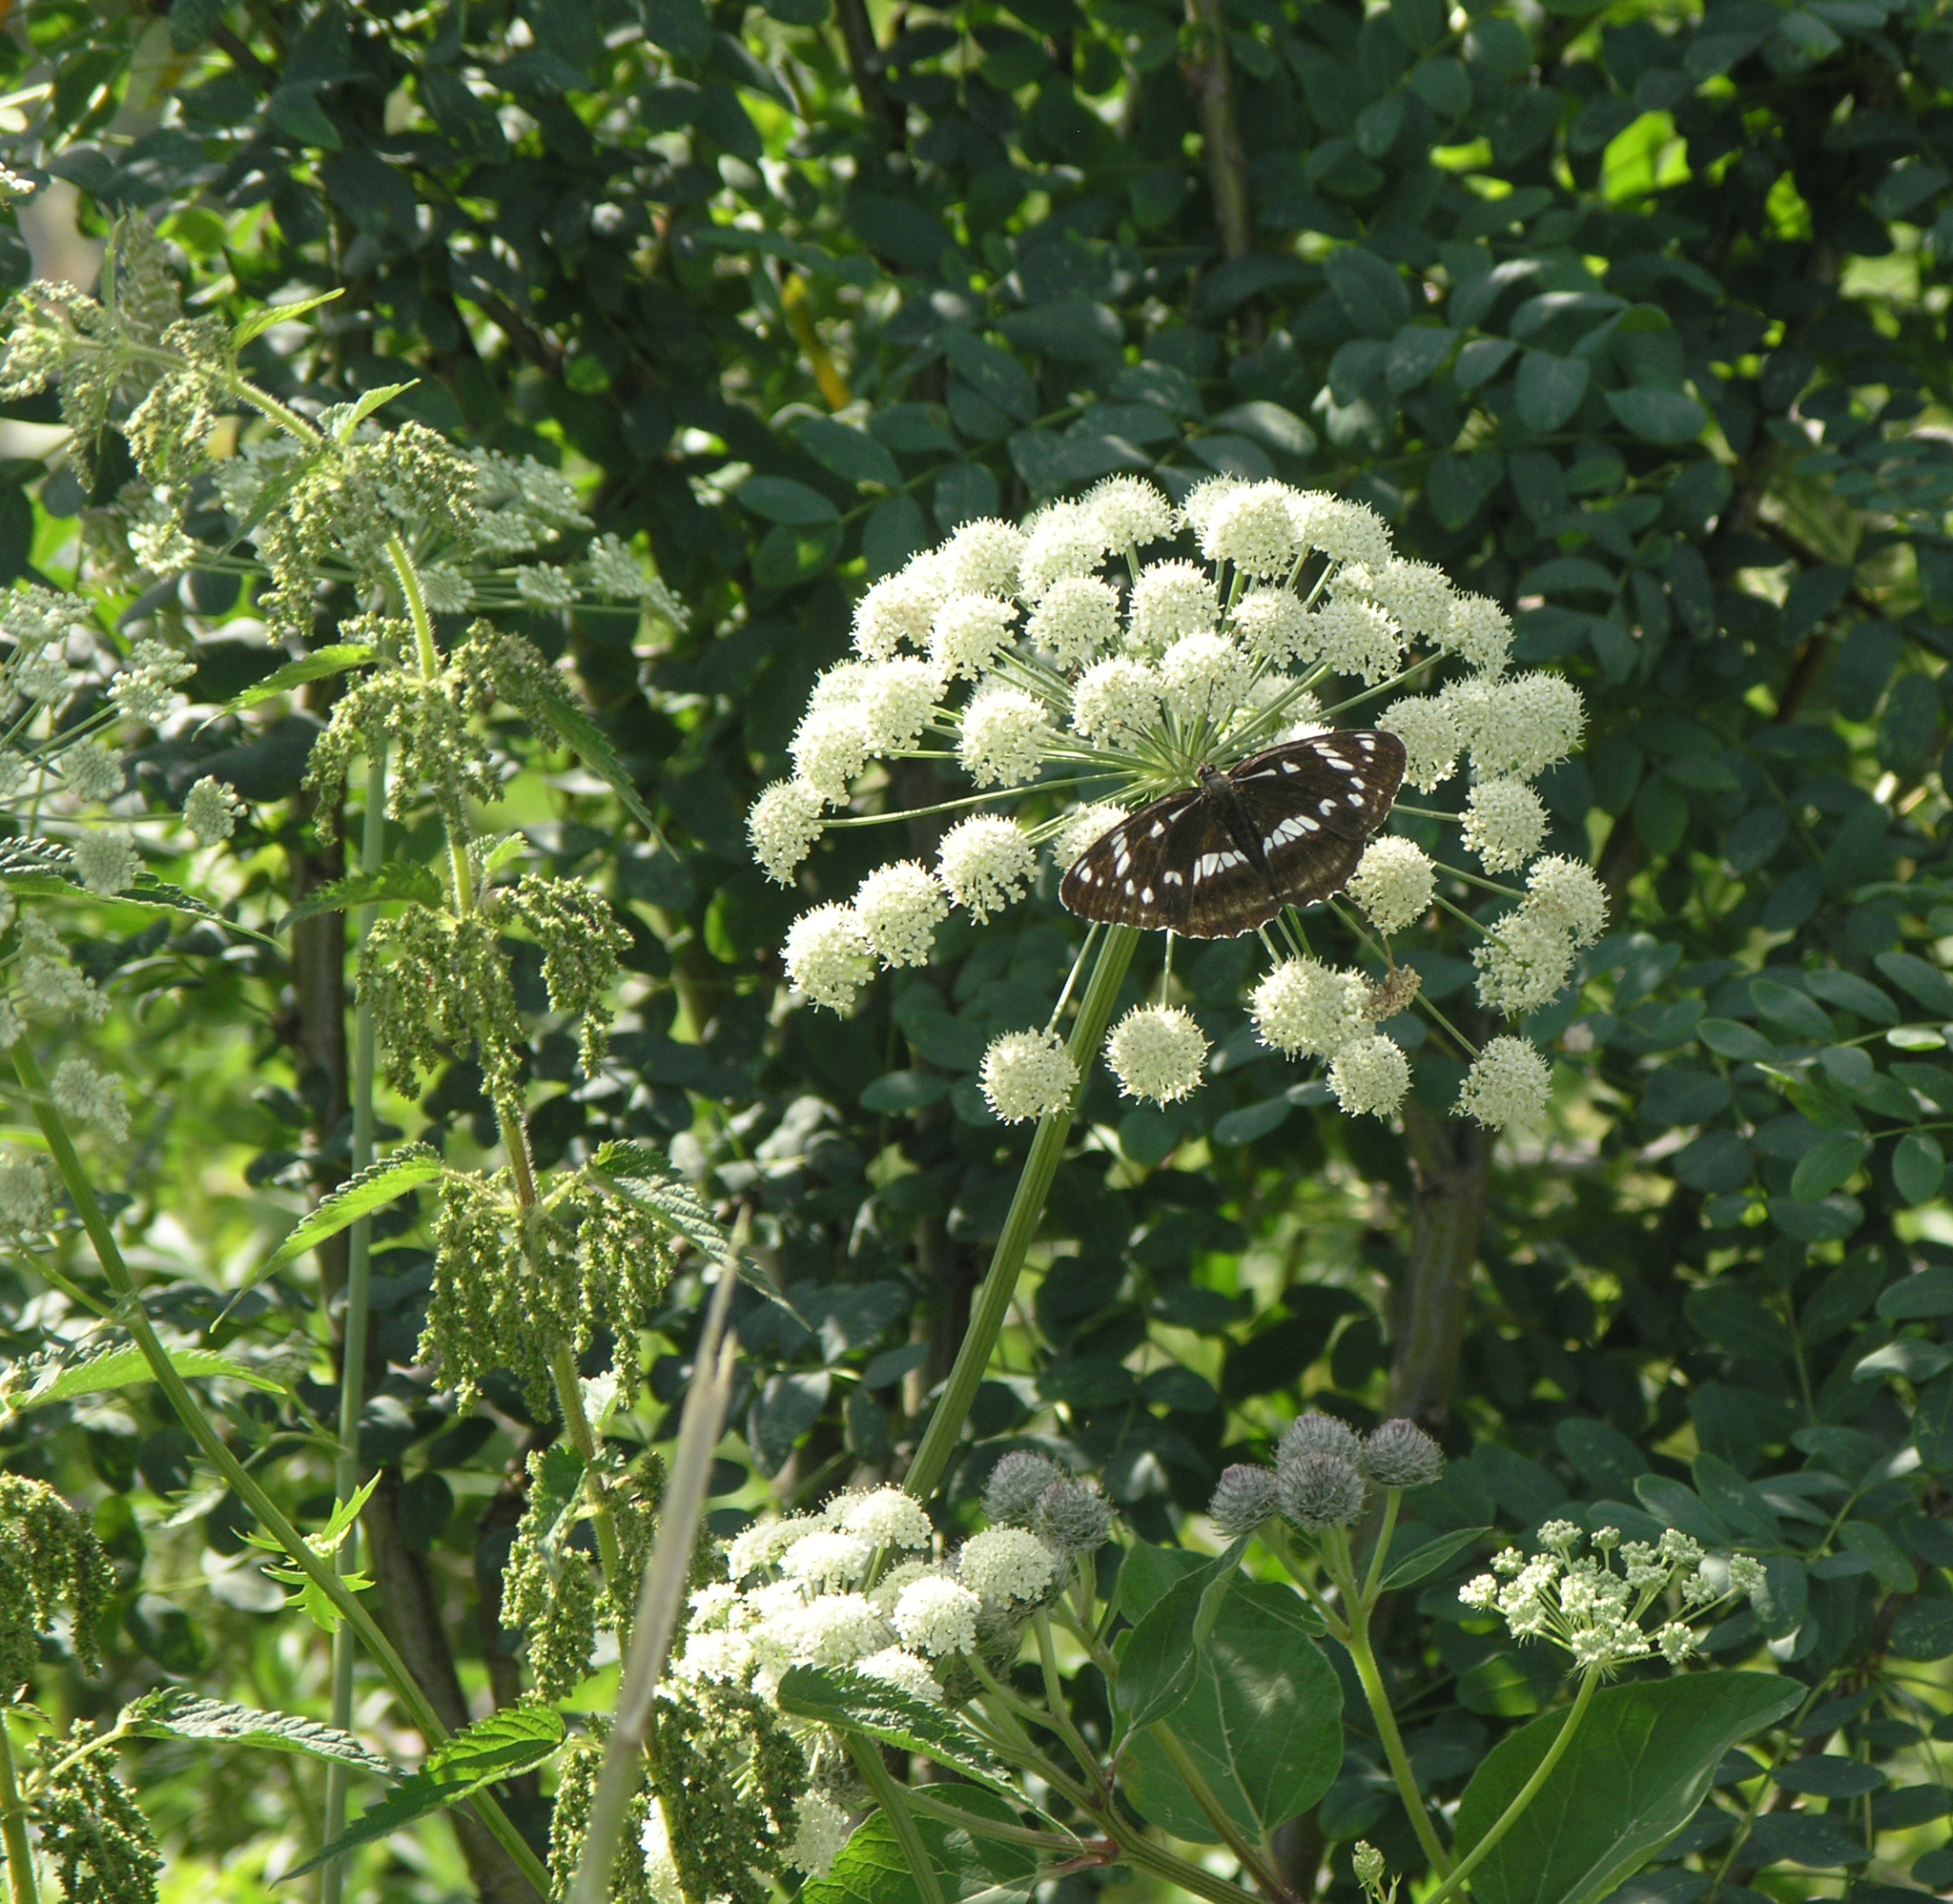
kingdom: Plantae
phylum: Tracheophyta
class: Magnoliopsida
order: Apiales
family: Apiaceae
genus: Seseli
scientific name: Seseli libanotis
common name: Mooncarrot
